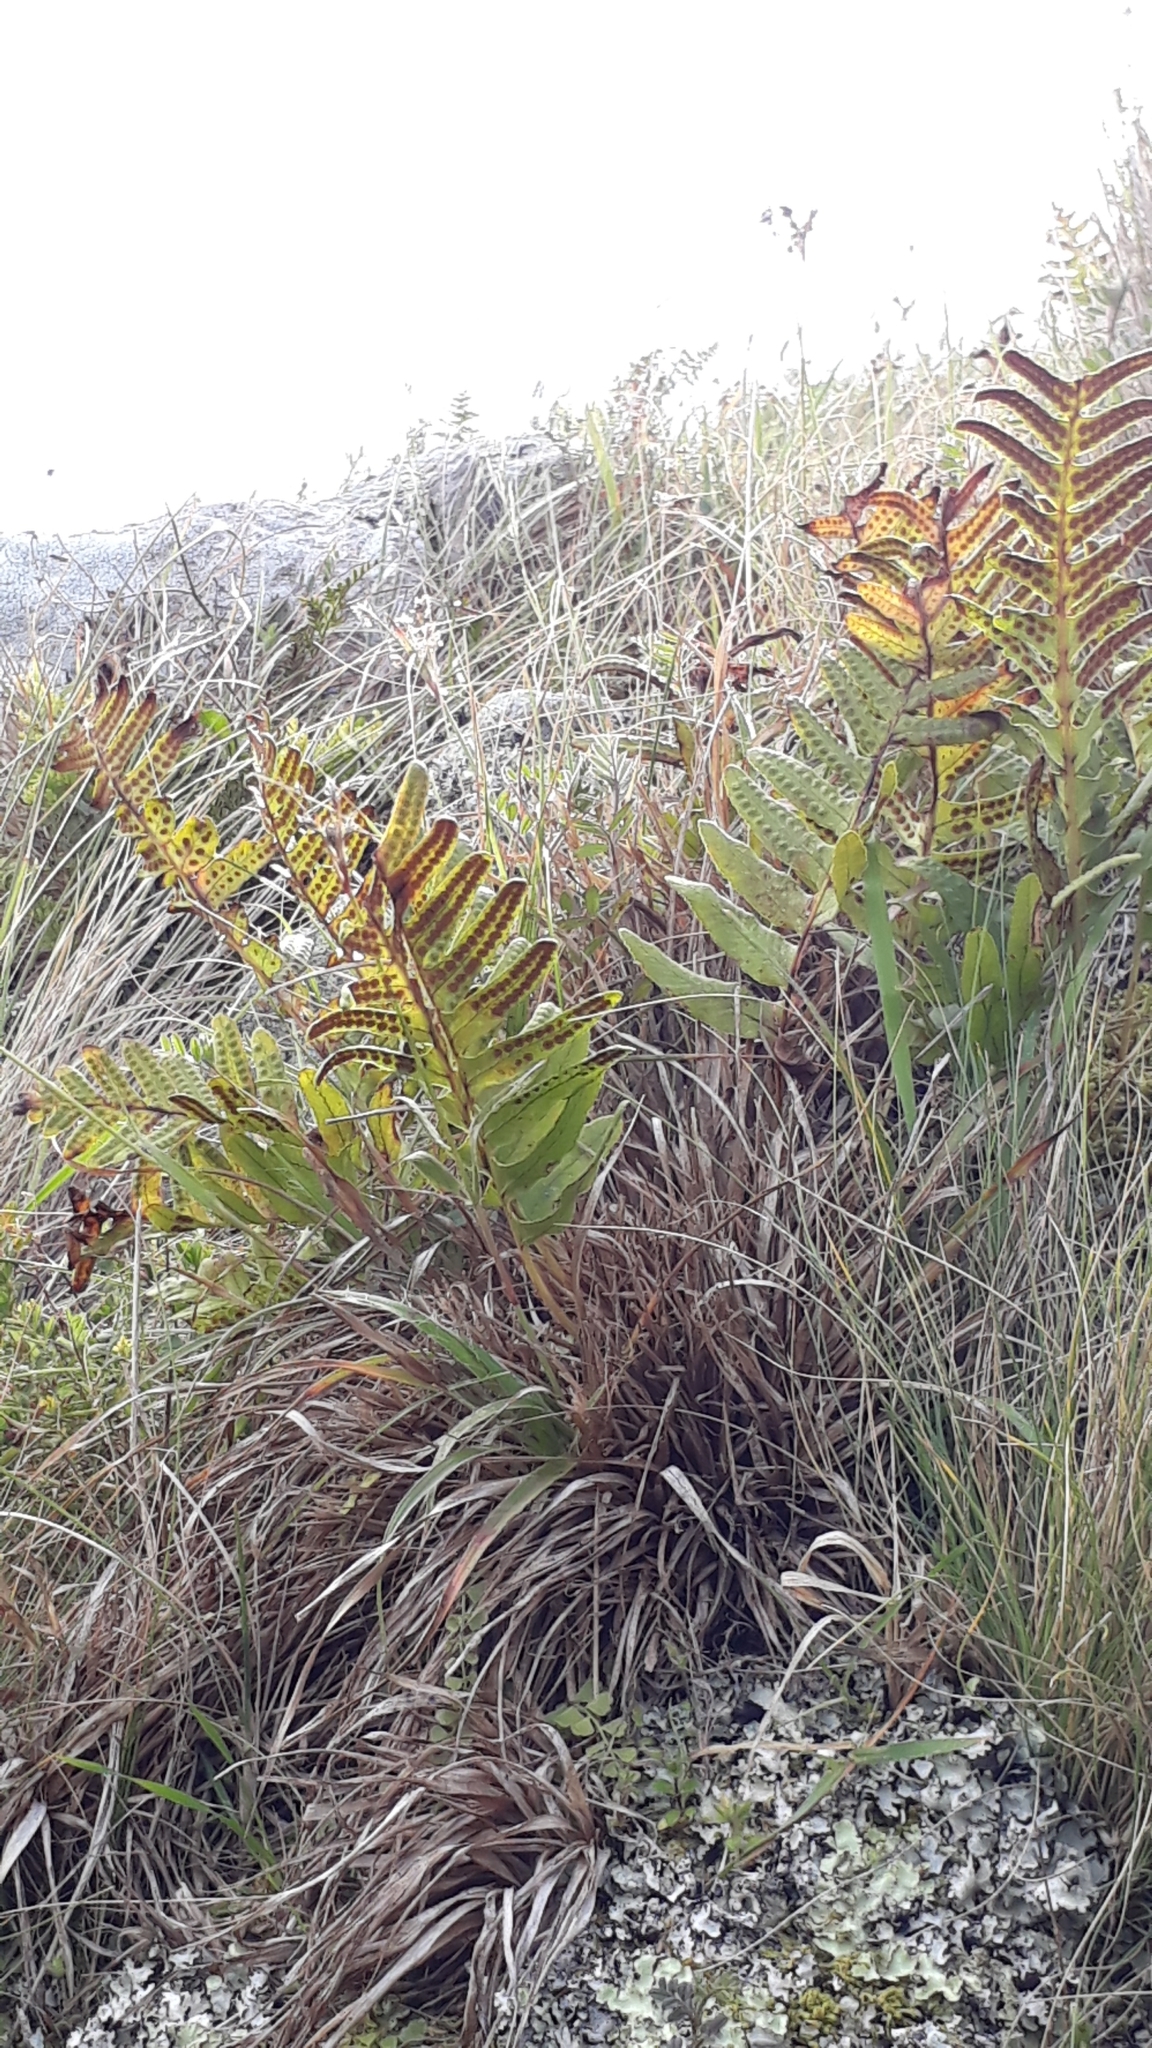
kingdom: Plantae
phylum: Tracheophyta
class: Polypodiopsida
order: Polypodiales
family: Polypodiaceae
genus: Polypodium
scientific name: Polypodium vulgare
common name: Common polypody
